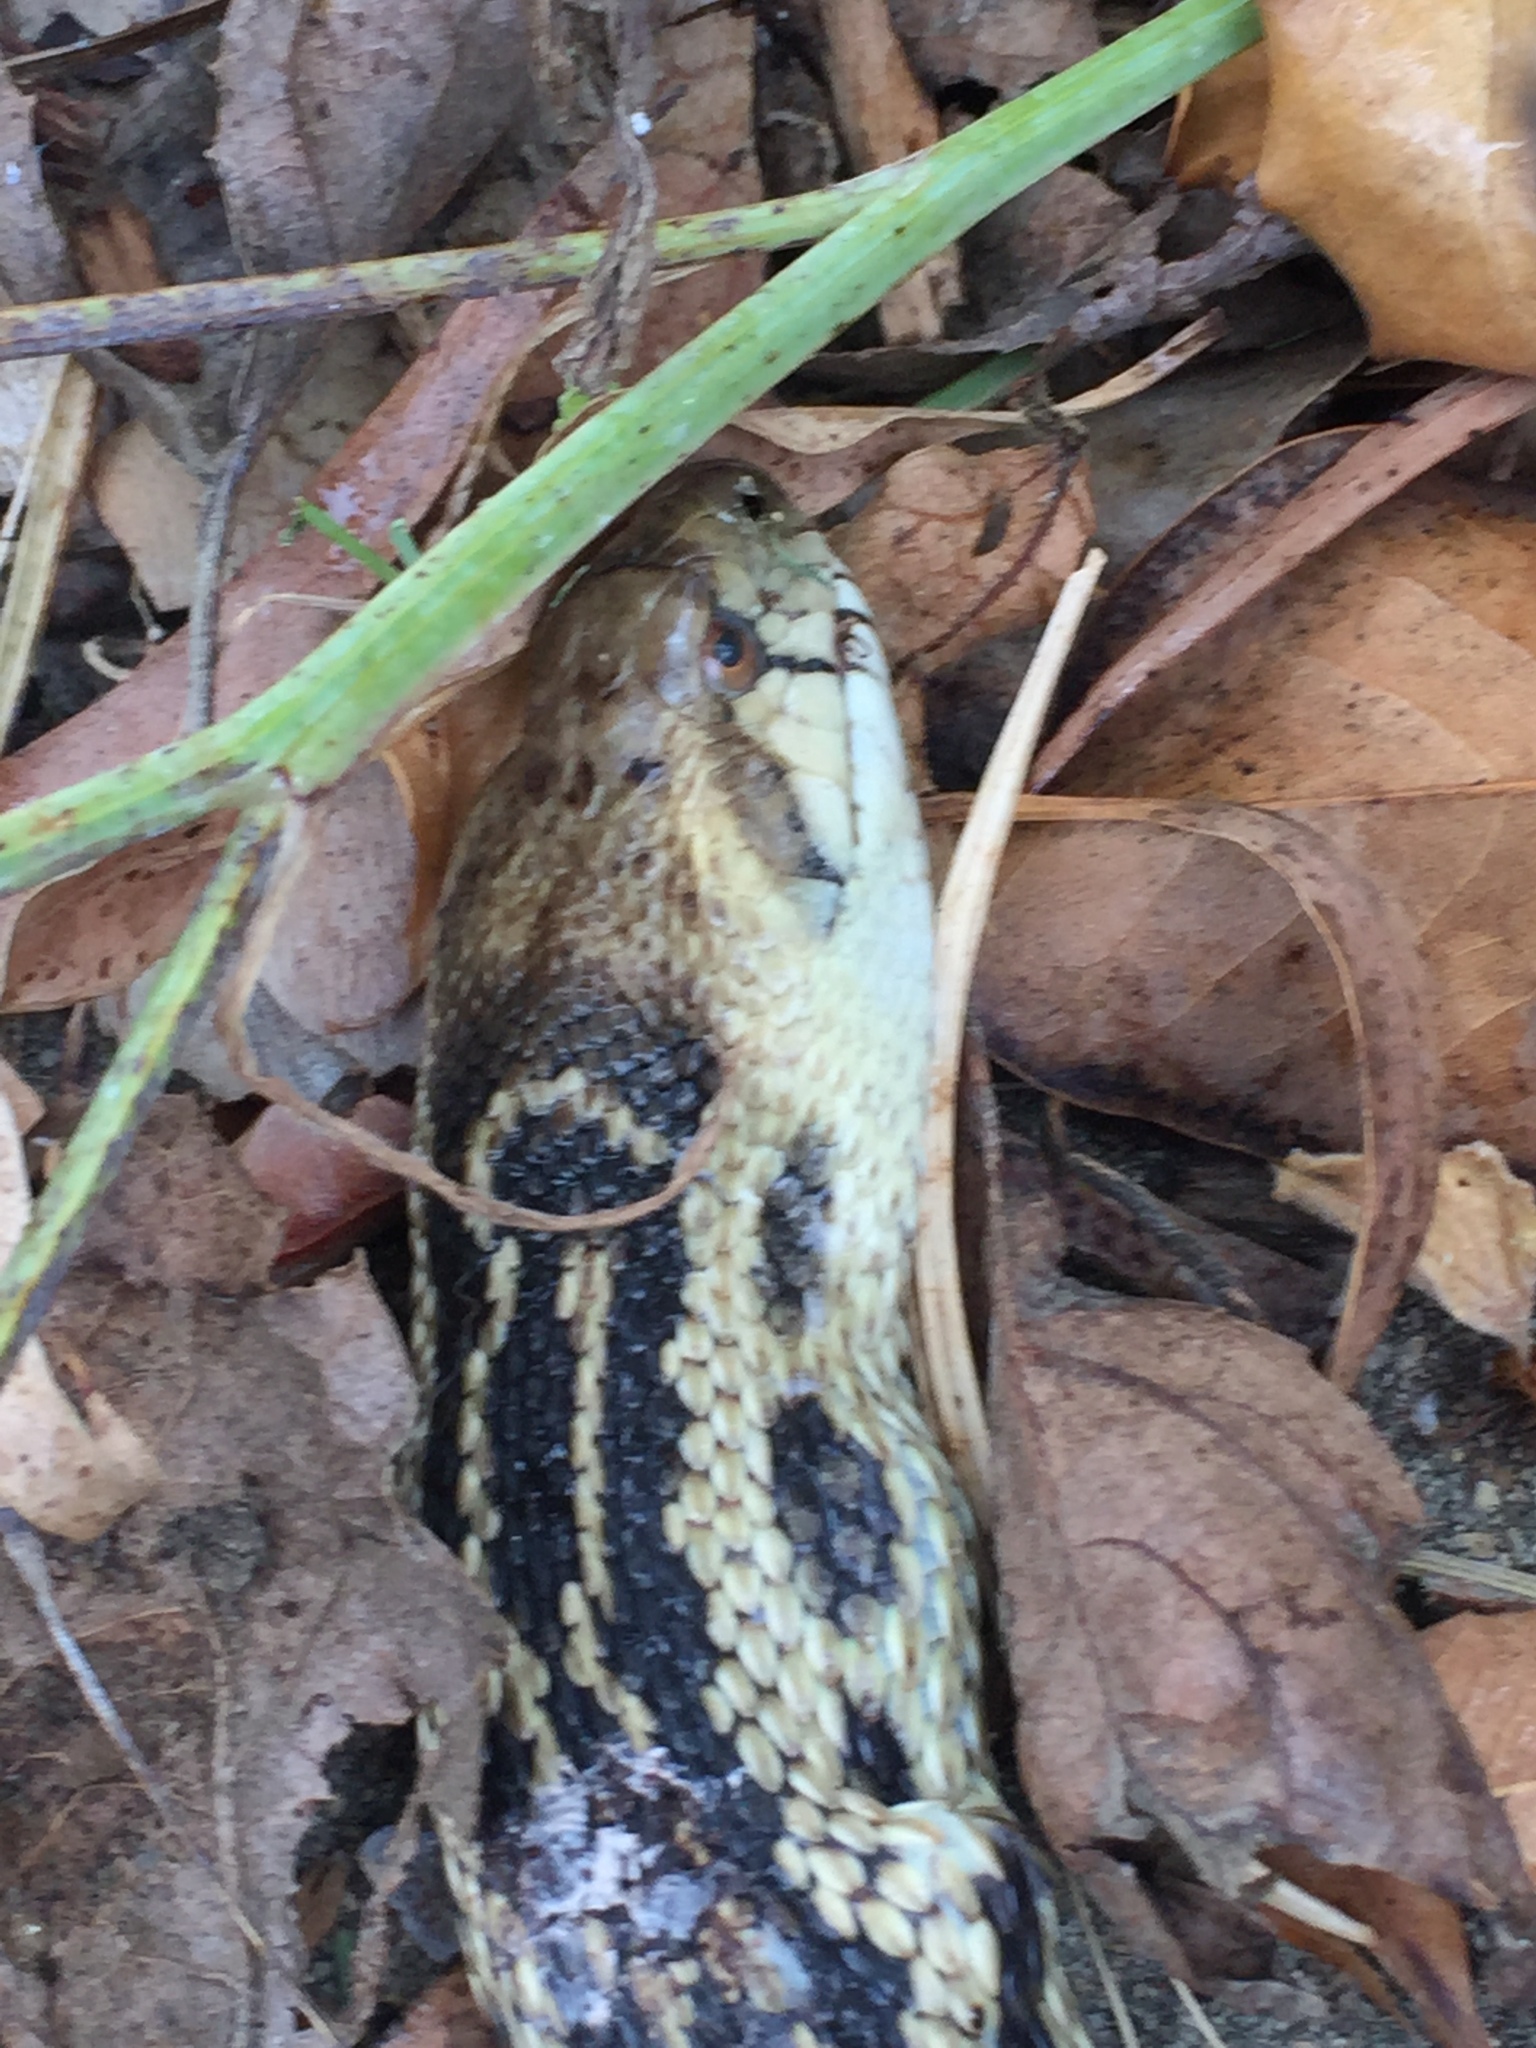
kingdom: Animalia
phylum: Chordata
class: Squamata
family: Colubridae
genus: Pituophis
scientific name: Pituophis catenifer
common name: Gopher snake
